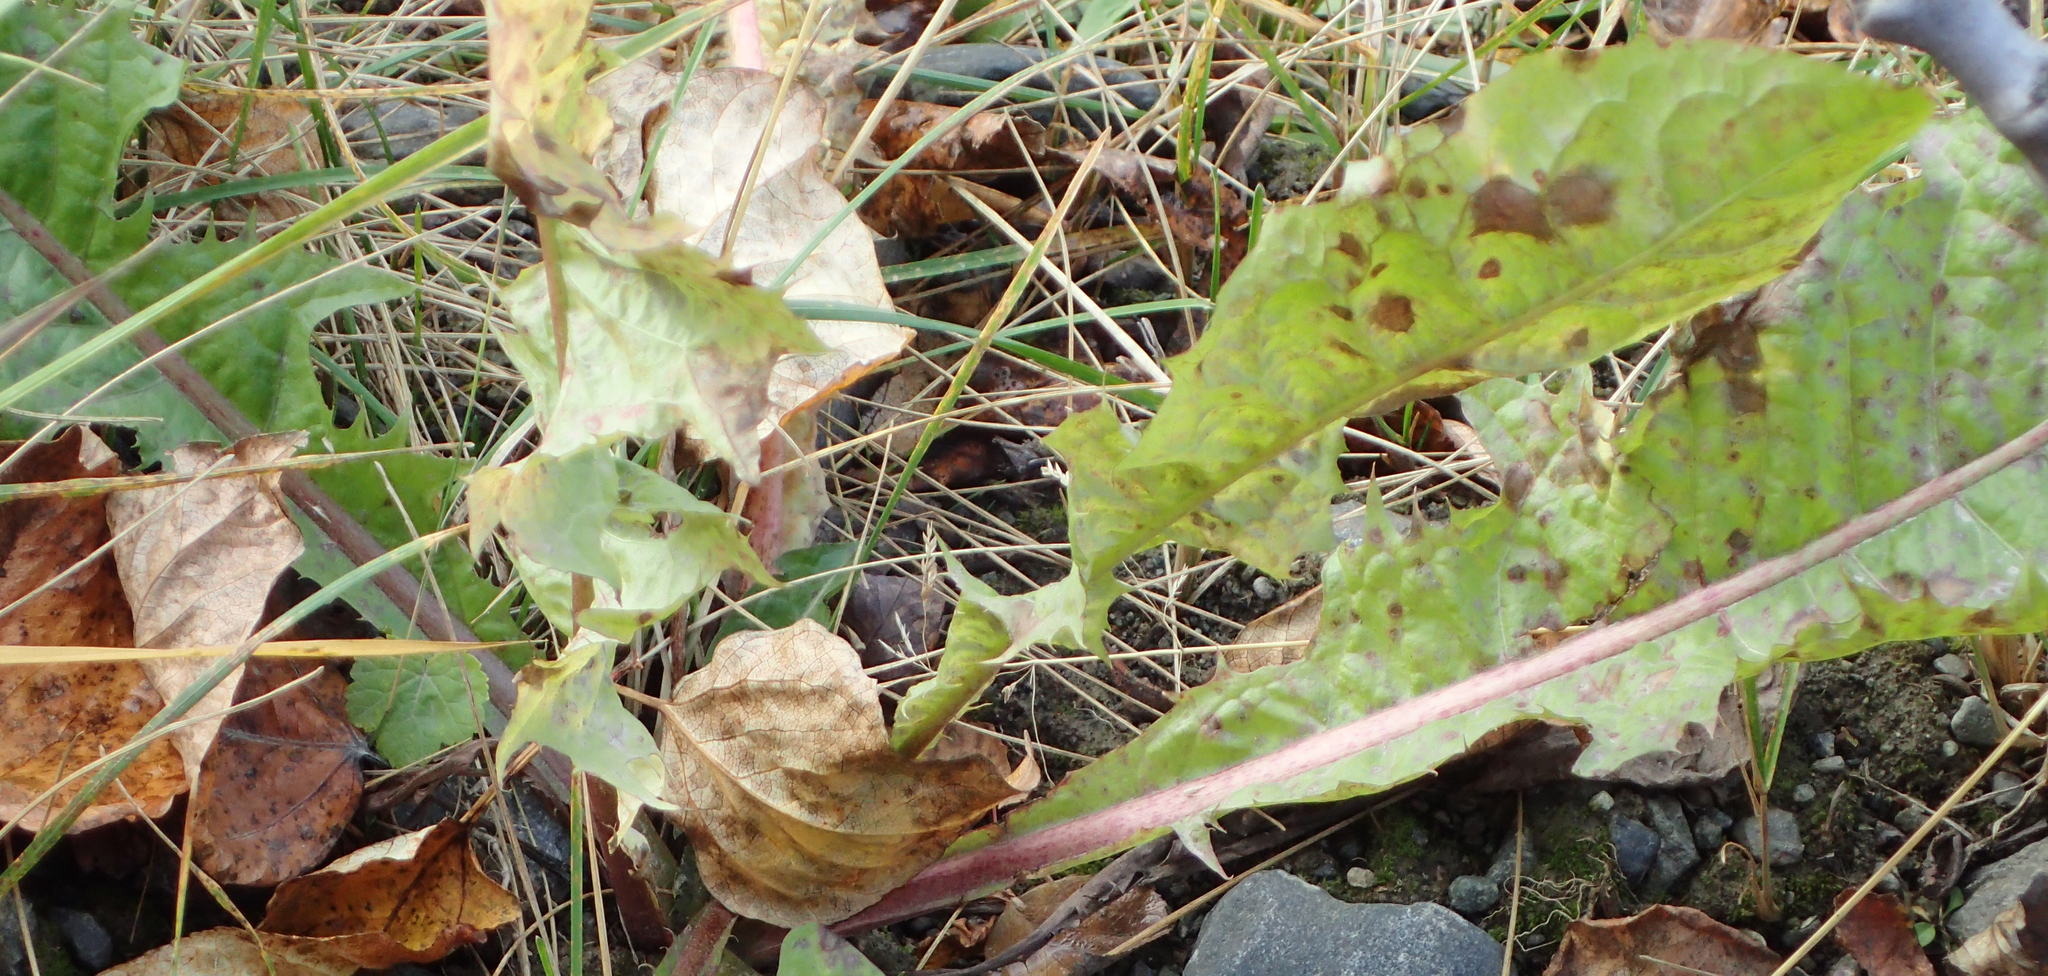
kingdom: Plantae
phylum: Tracheophyta
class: Magnoliopsida
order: Asterales
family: Asteraceae
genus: Taraxacum
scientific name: Taraxacum officinale
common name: Common dandelion
